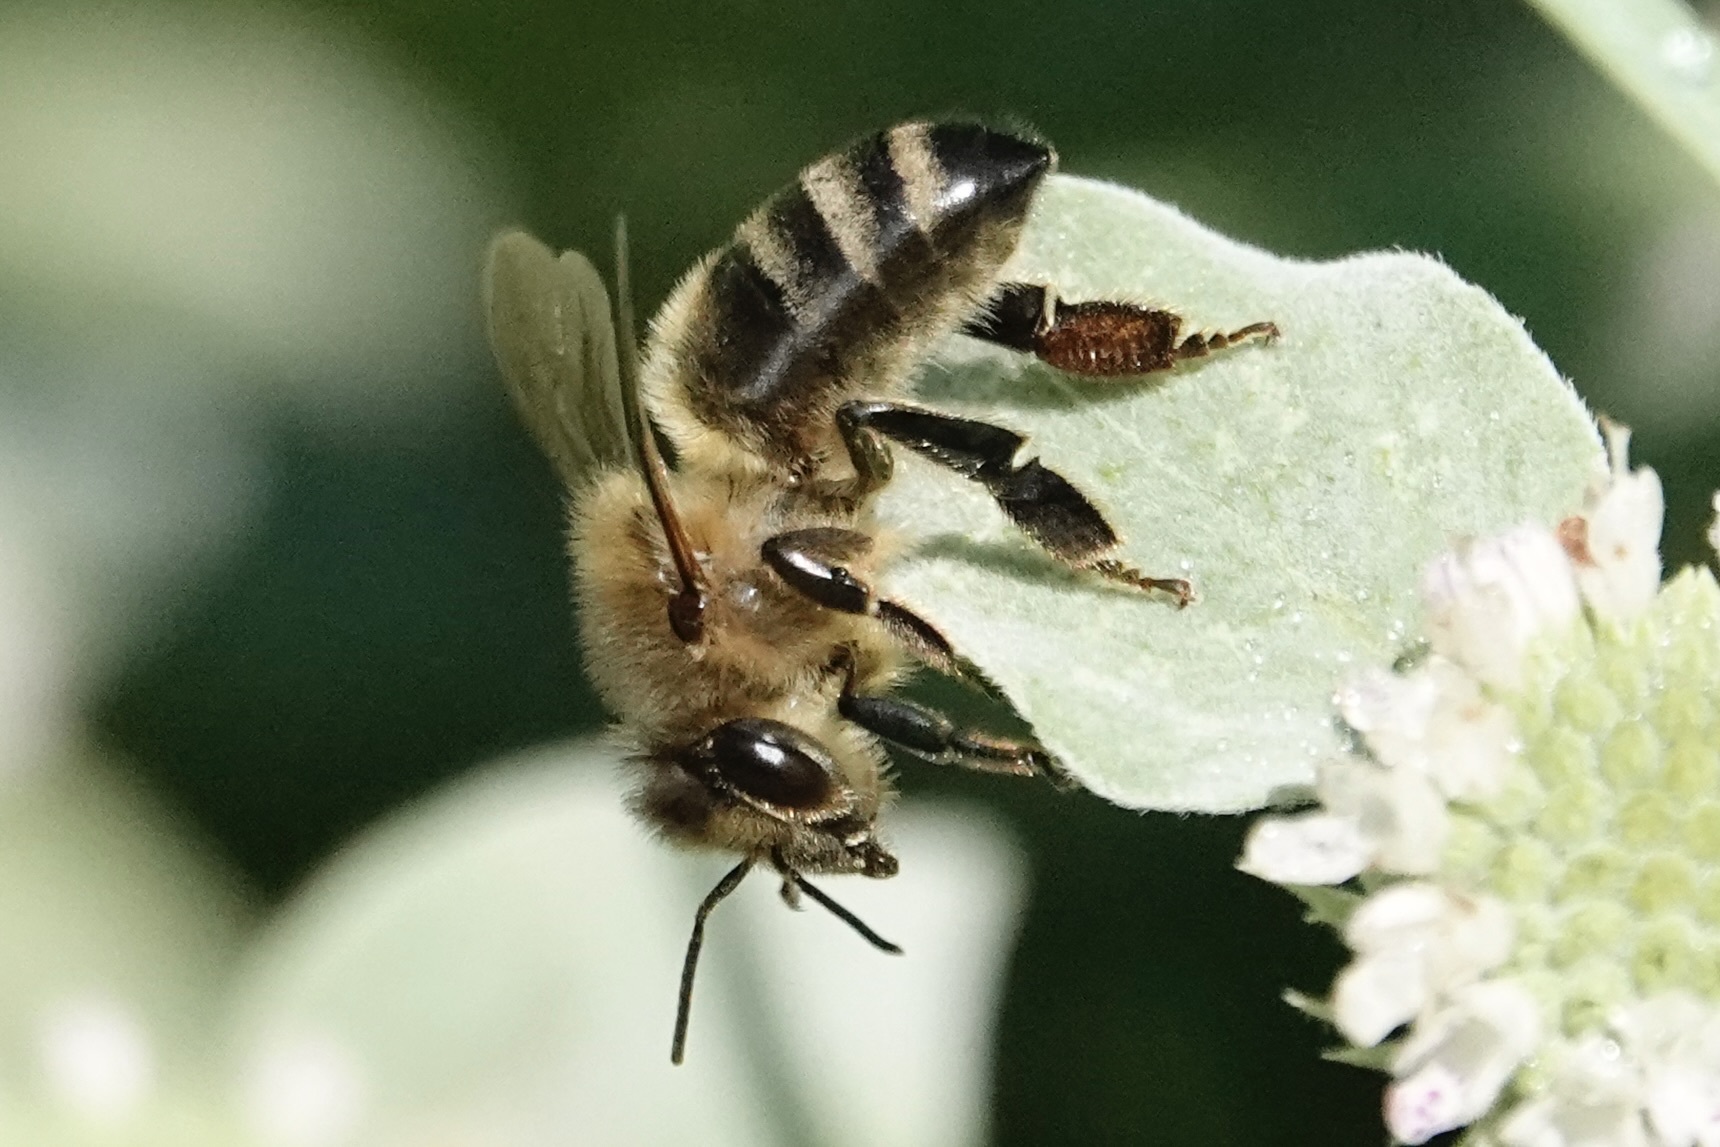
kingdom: Animalia
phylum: Arthropoda
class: Insecta
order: Hymenoptera
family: Apidae
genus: Apis
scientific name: Apis mellifera
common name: Honey bee
